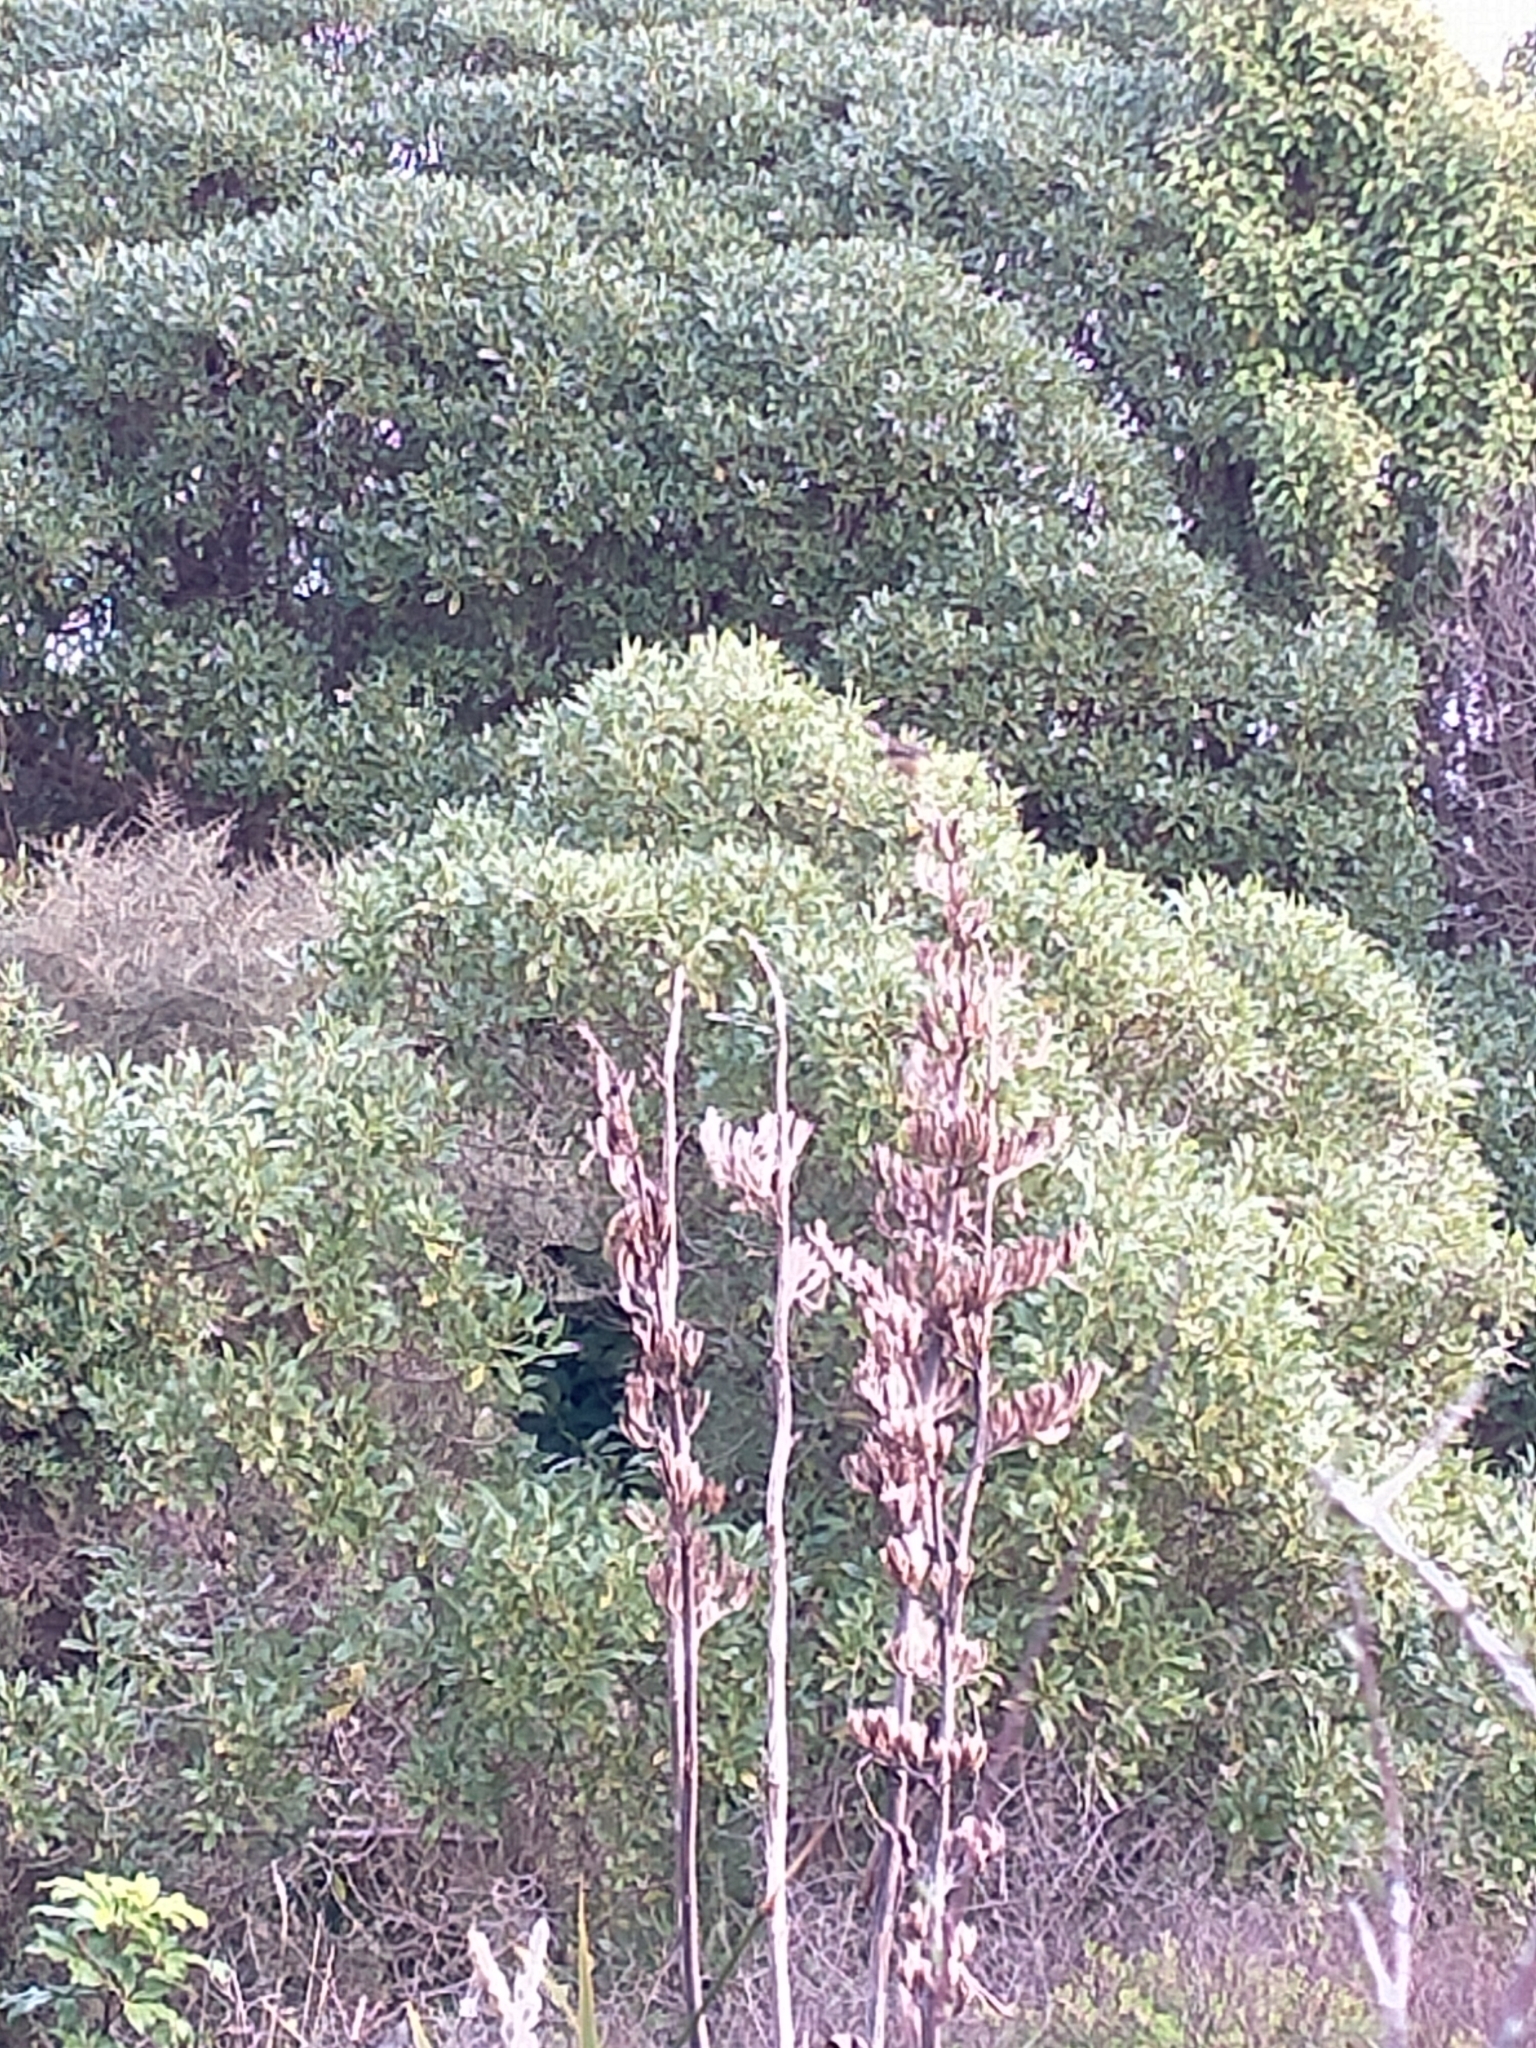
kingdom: Animalia
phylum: Chordata
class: Aves
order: Passeriformes
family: Rhipiduridae
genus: Rhipidura
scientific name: Rhipidura fuliginosa
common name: New zealand fantail
